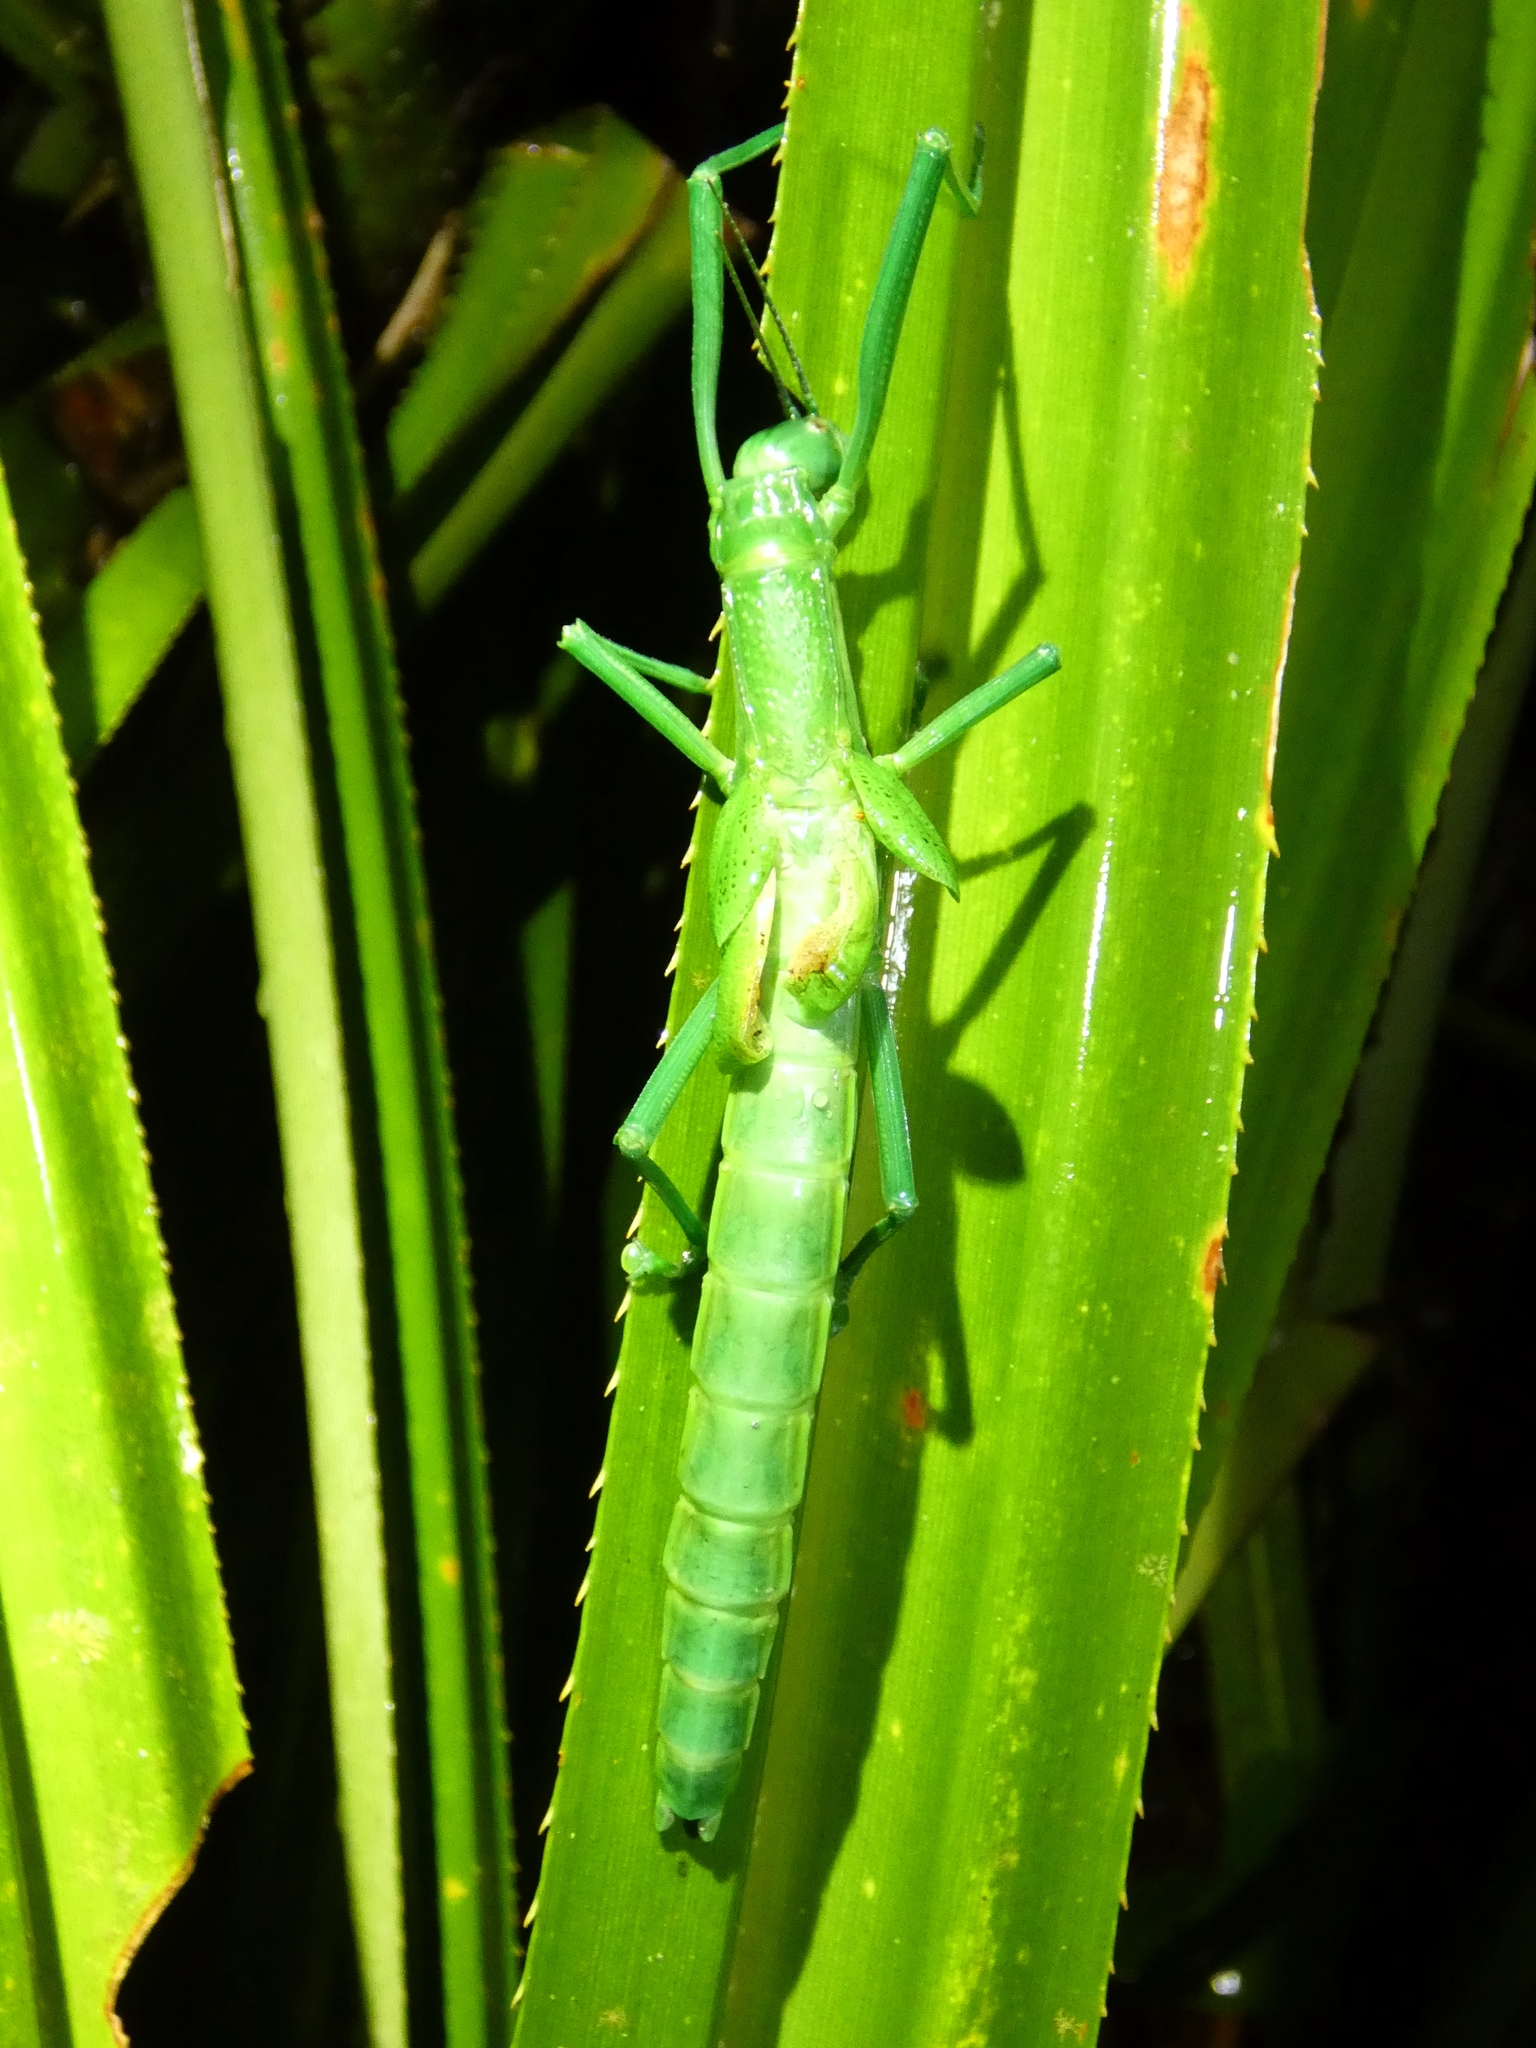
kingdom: Animalia
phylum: Arthropoda
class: Insecta
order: Phasmida
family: Phasmatidae
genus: Megacrania
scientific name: Megacrania batesii
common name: Peppermint stick-insect
